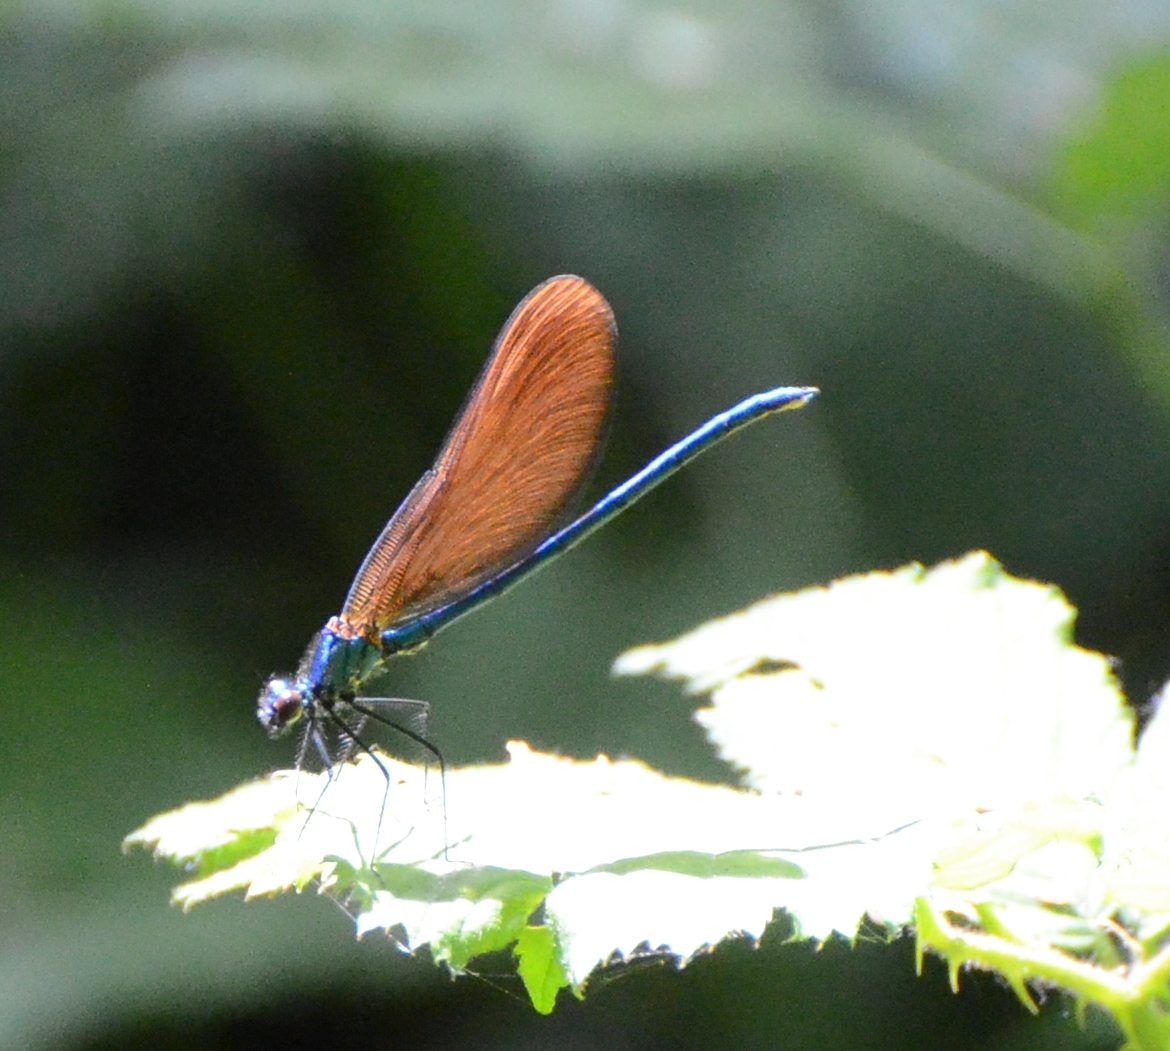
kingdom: Animalia
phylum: Arthropoda
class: Insecta
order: Odonata
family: Calopterygidae
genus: Calopteryx
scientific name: Calopteryx virgo
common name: Beautiful demoiselle
